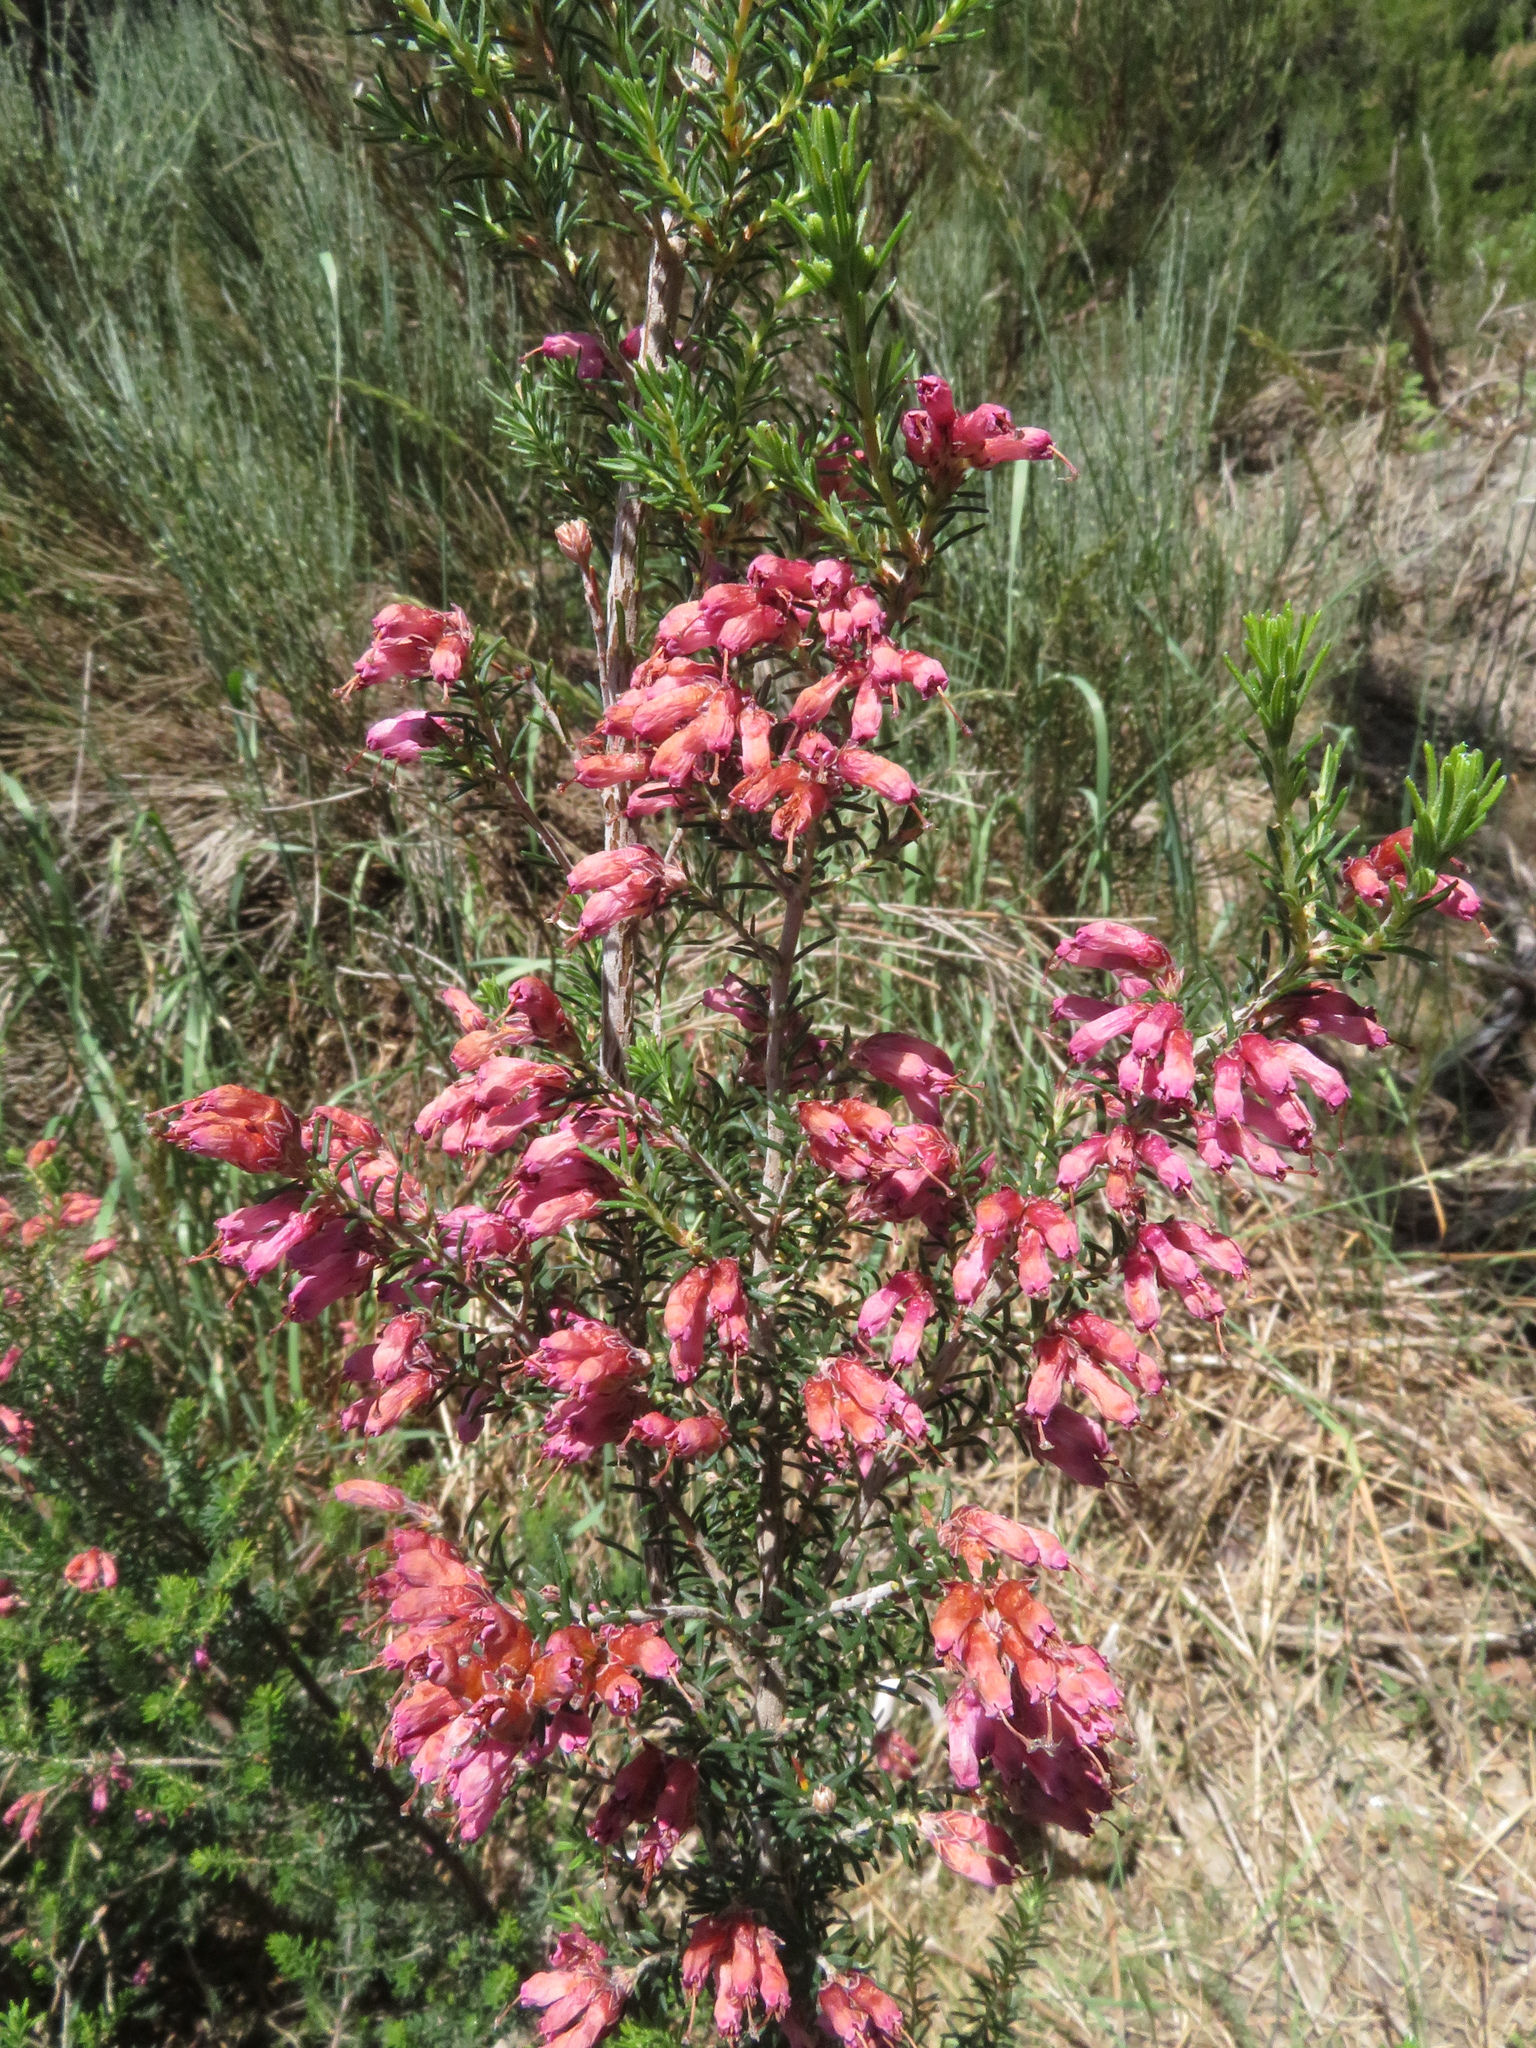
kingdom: Plantae
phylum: Tracheophyta
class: Magnoliopsida
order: Ericales
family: Ericaceae
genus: Erica
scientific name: Erica australis
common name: Spanish heath
